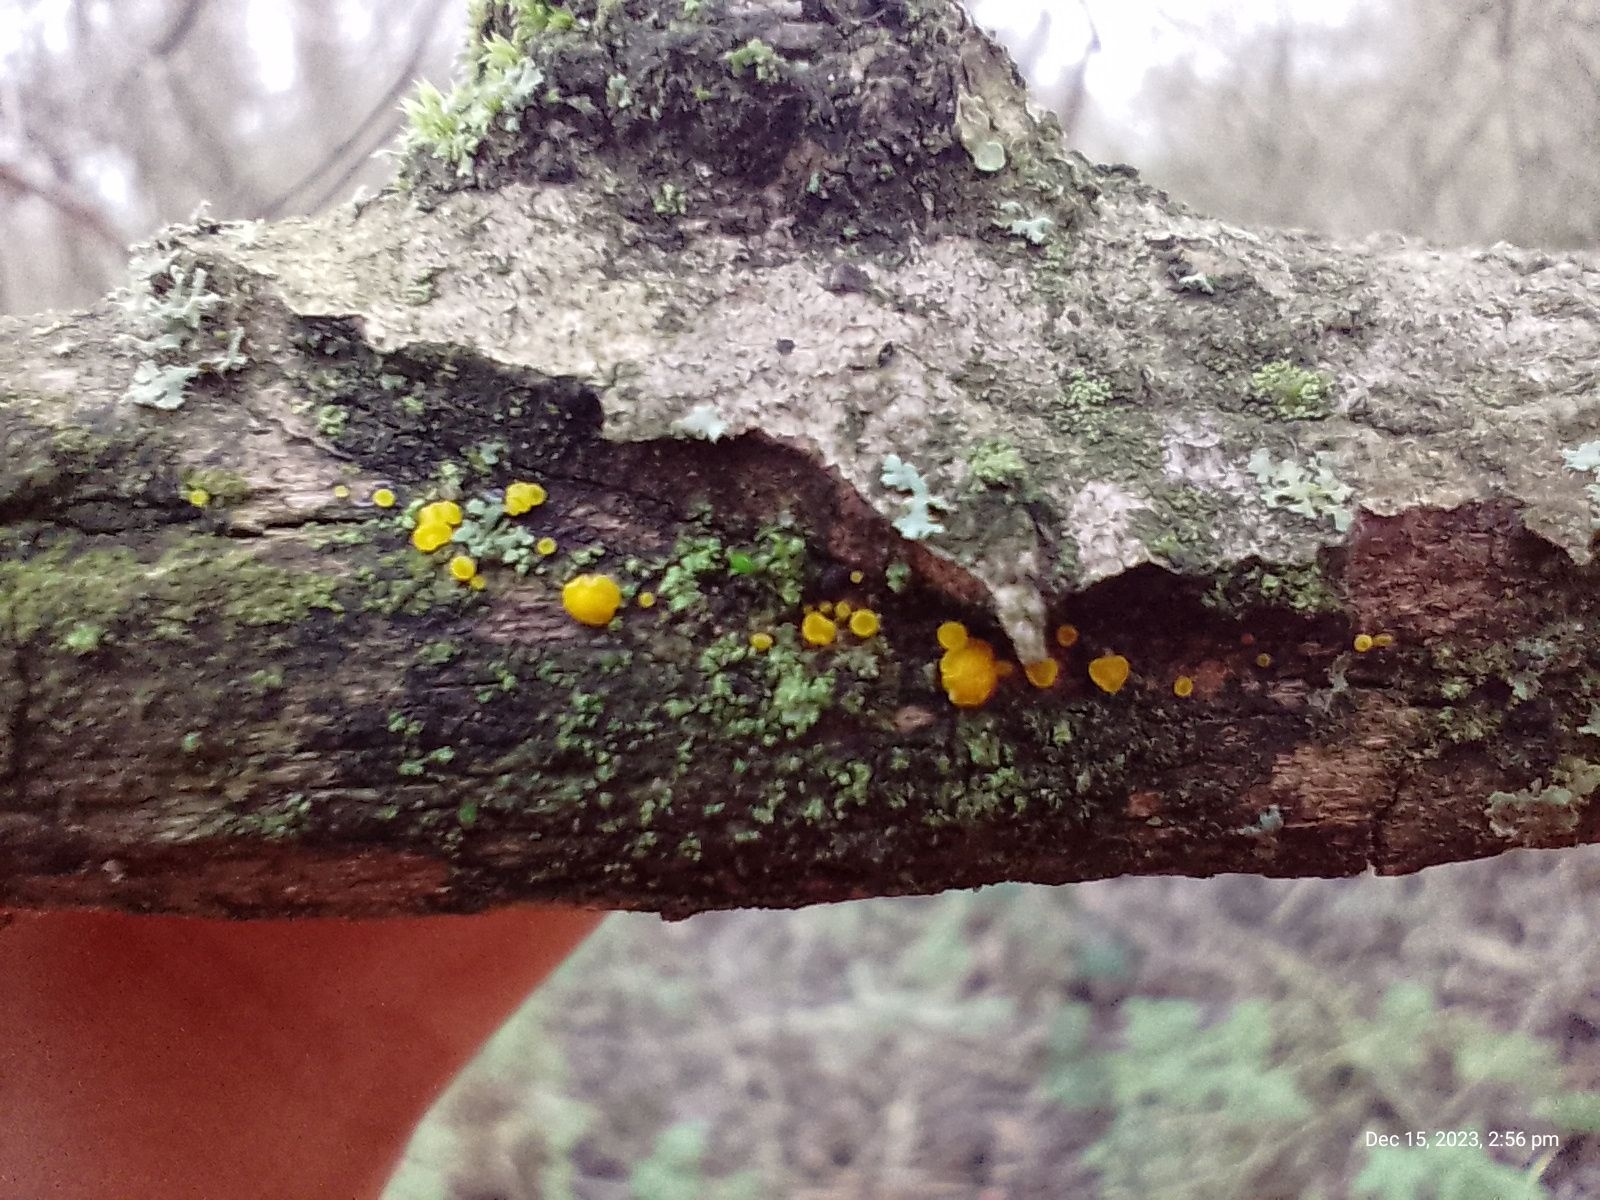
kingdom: Fungi
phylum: Basidiomycota
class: Dacrymycetes
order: Dacrymycetales
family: Dacrymycetaceae
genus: Dacrymyces
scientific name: Dacrymyces stillatus
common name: Common jelly spot
